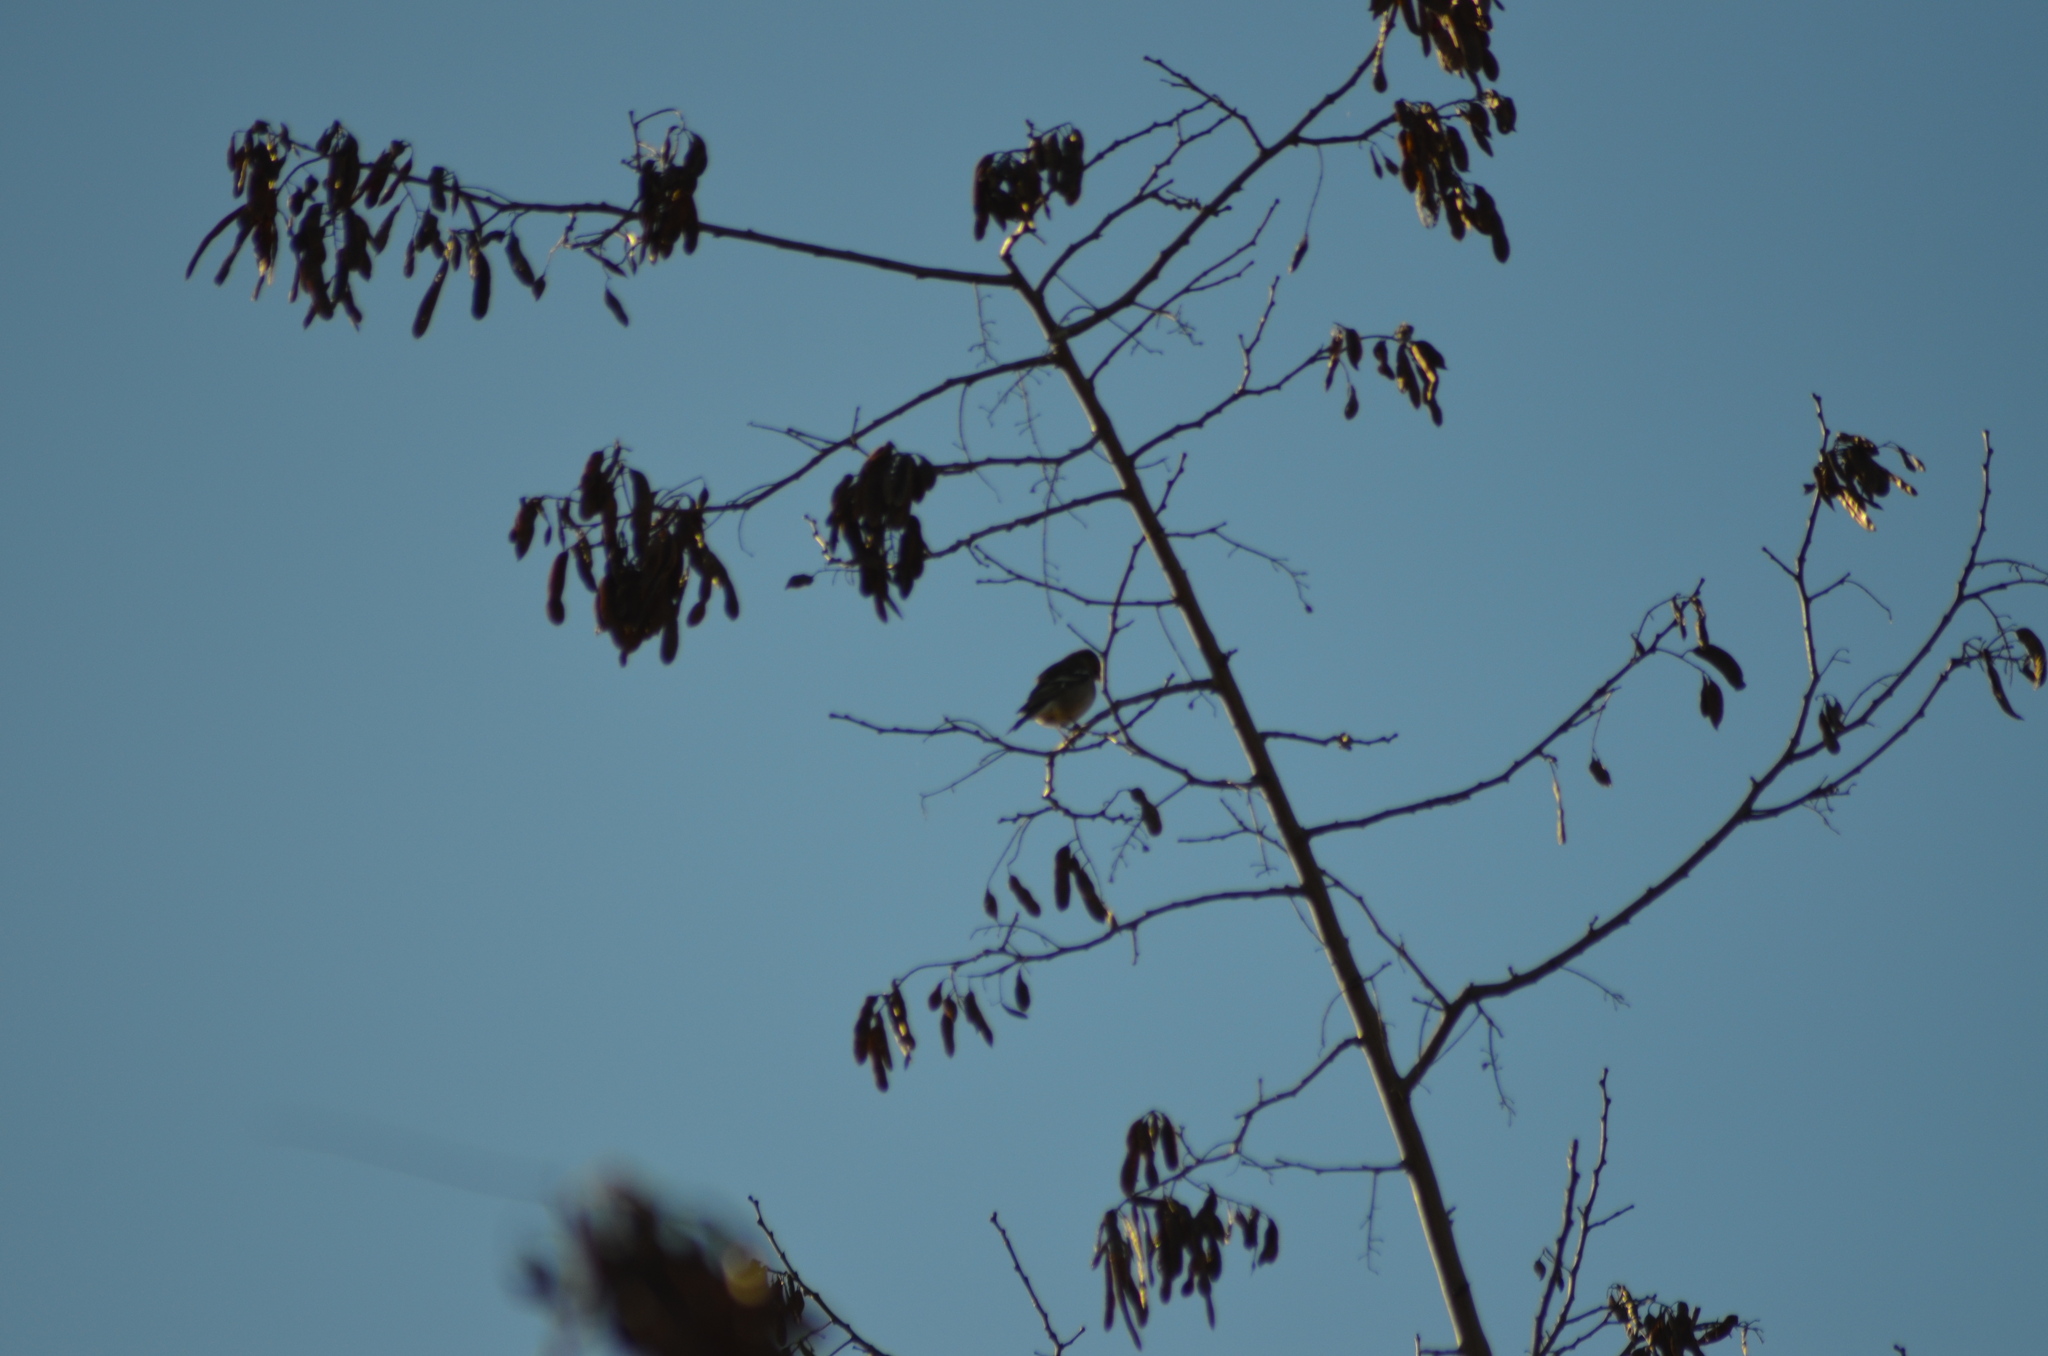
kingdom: Animalia
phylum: Chordata
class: Aves
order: Passeriformes
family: Fringillidae
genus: Fringilla
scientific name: Fringilla coelebs
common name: Common chaffinch
